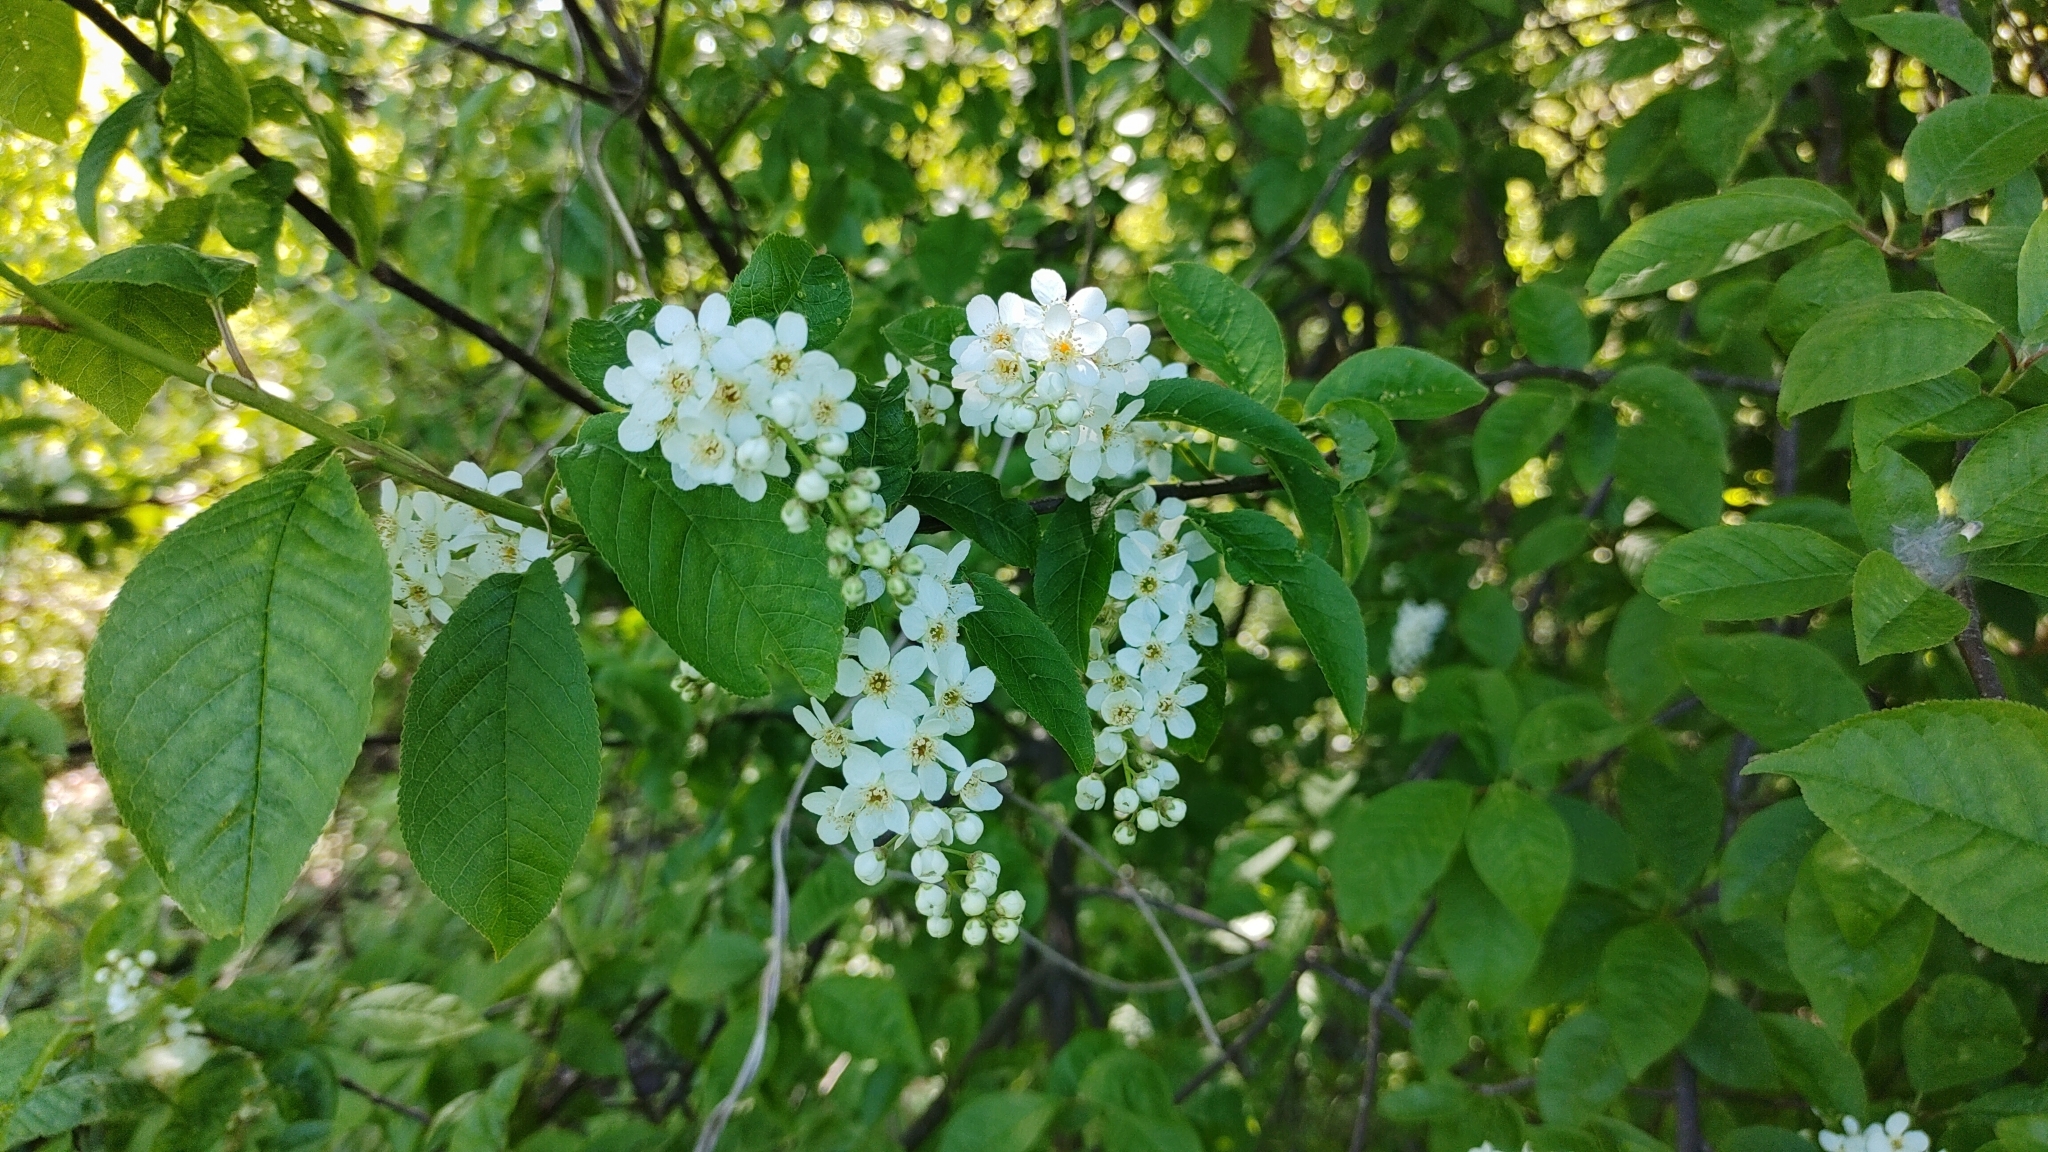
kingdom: Plantae
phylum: Tracheophyta
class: Magnoliopsida
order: Rosales
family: Rosaceae
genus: Prunus
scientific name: Prunus padus
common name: Bird cherry
